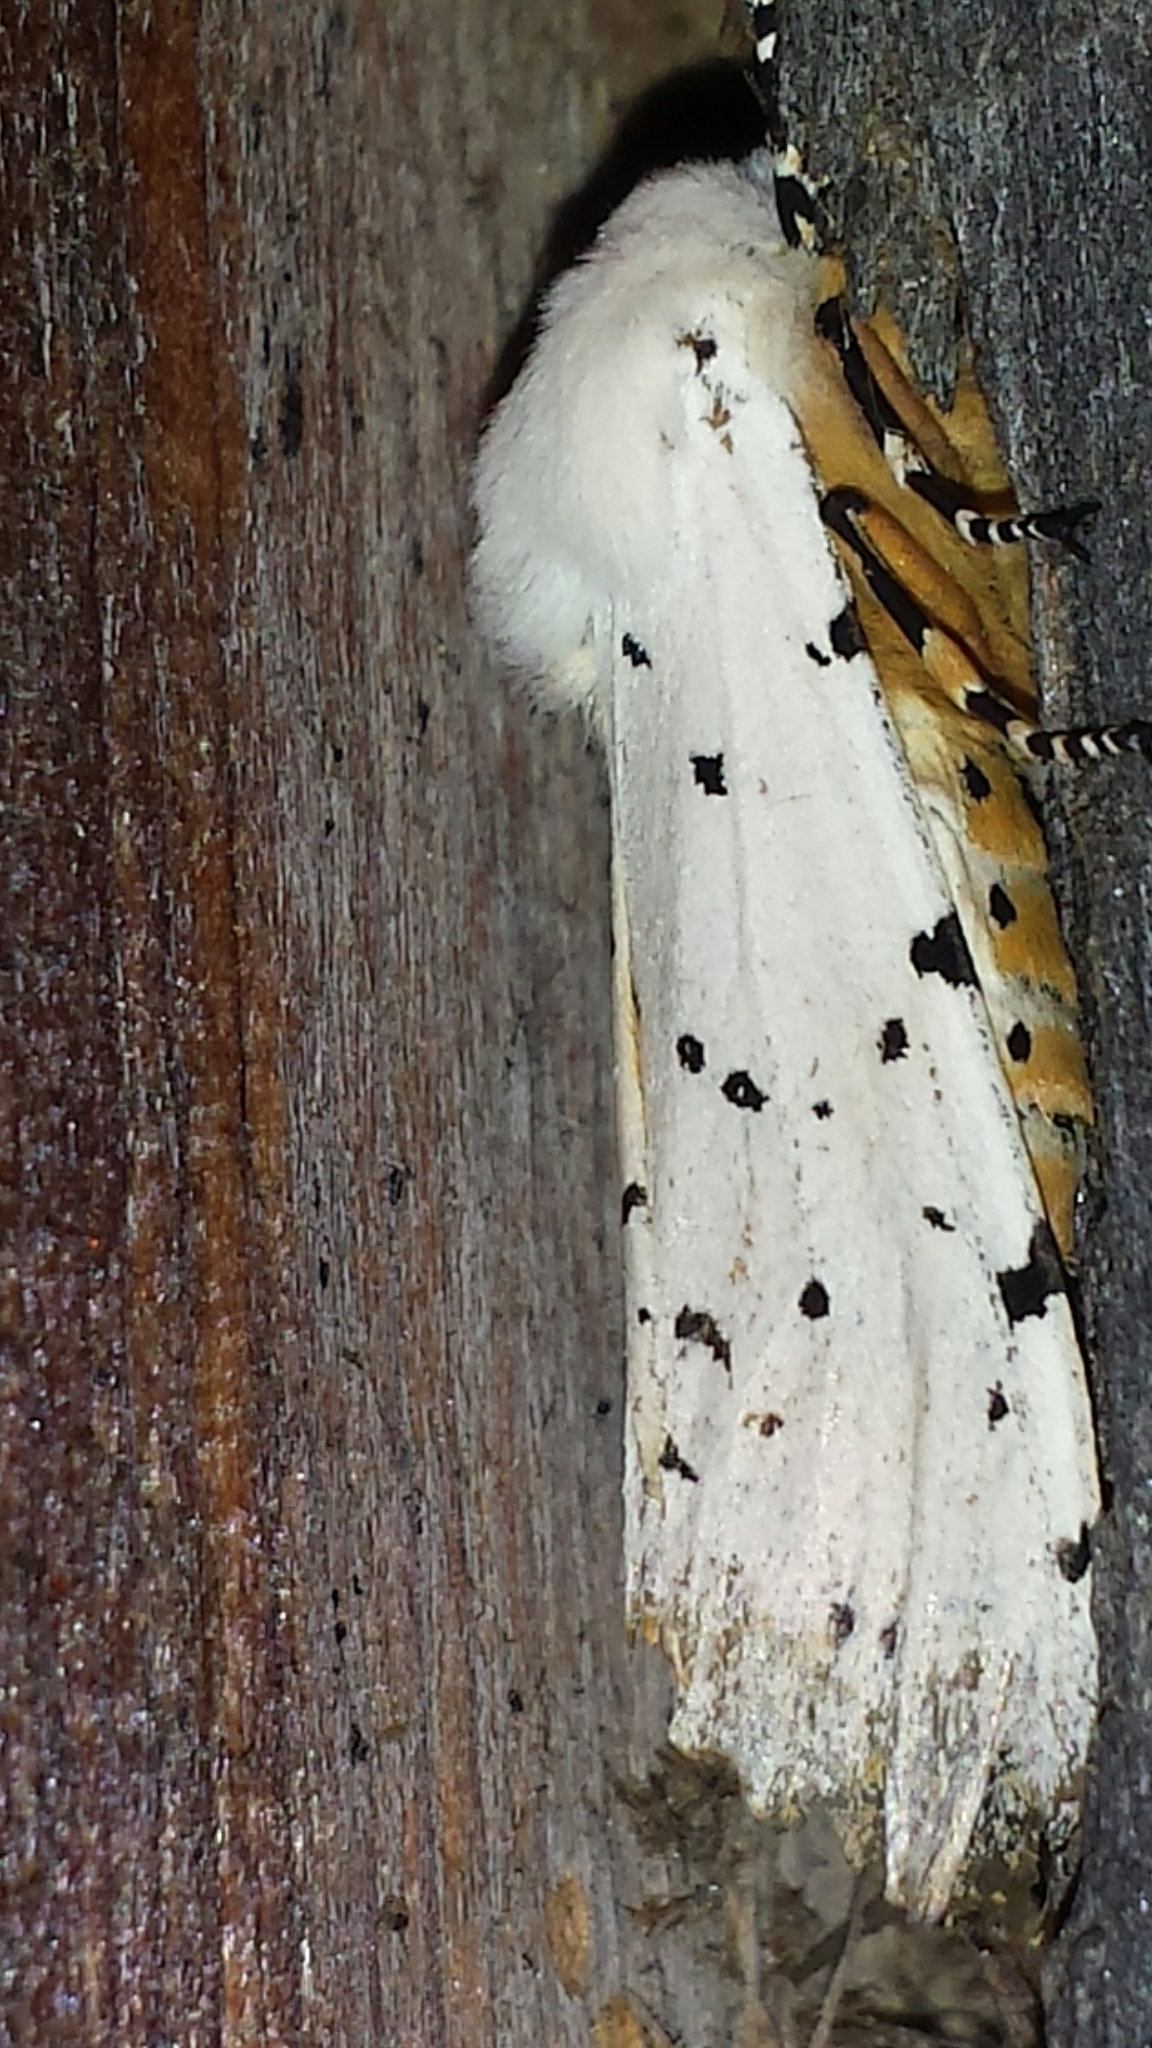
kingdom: Animalia
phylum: Arthropoda
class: Insecta
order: Lepidoptera
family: Erebidae
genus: Estigmene
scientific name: Estigmene acrea
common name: Salt marsh moth
